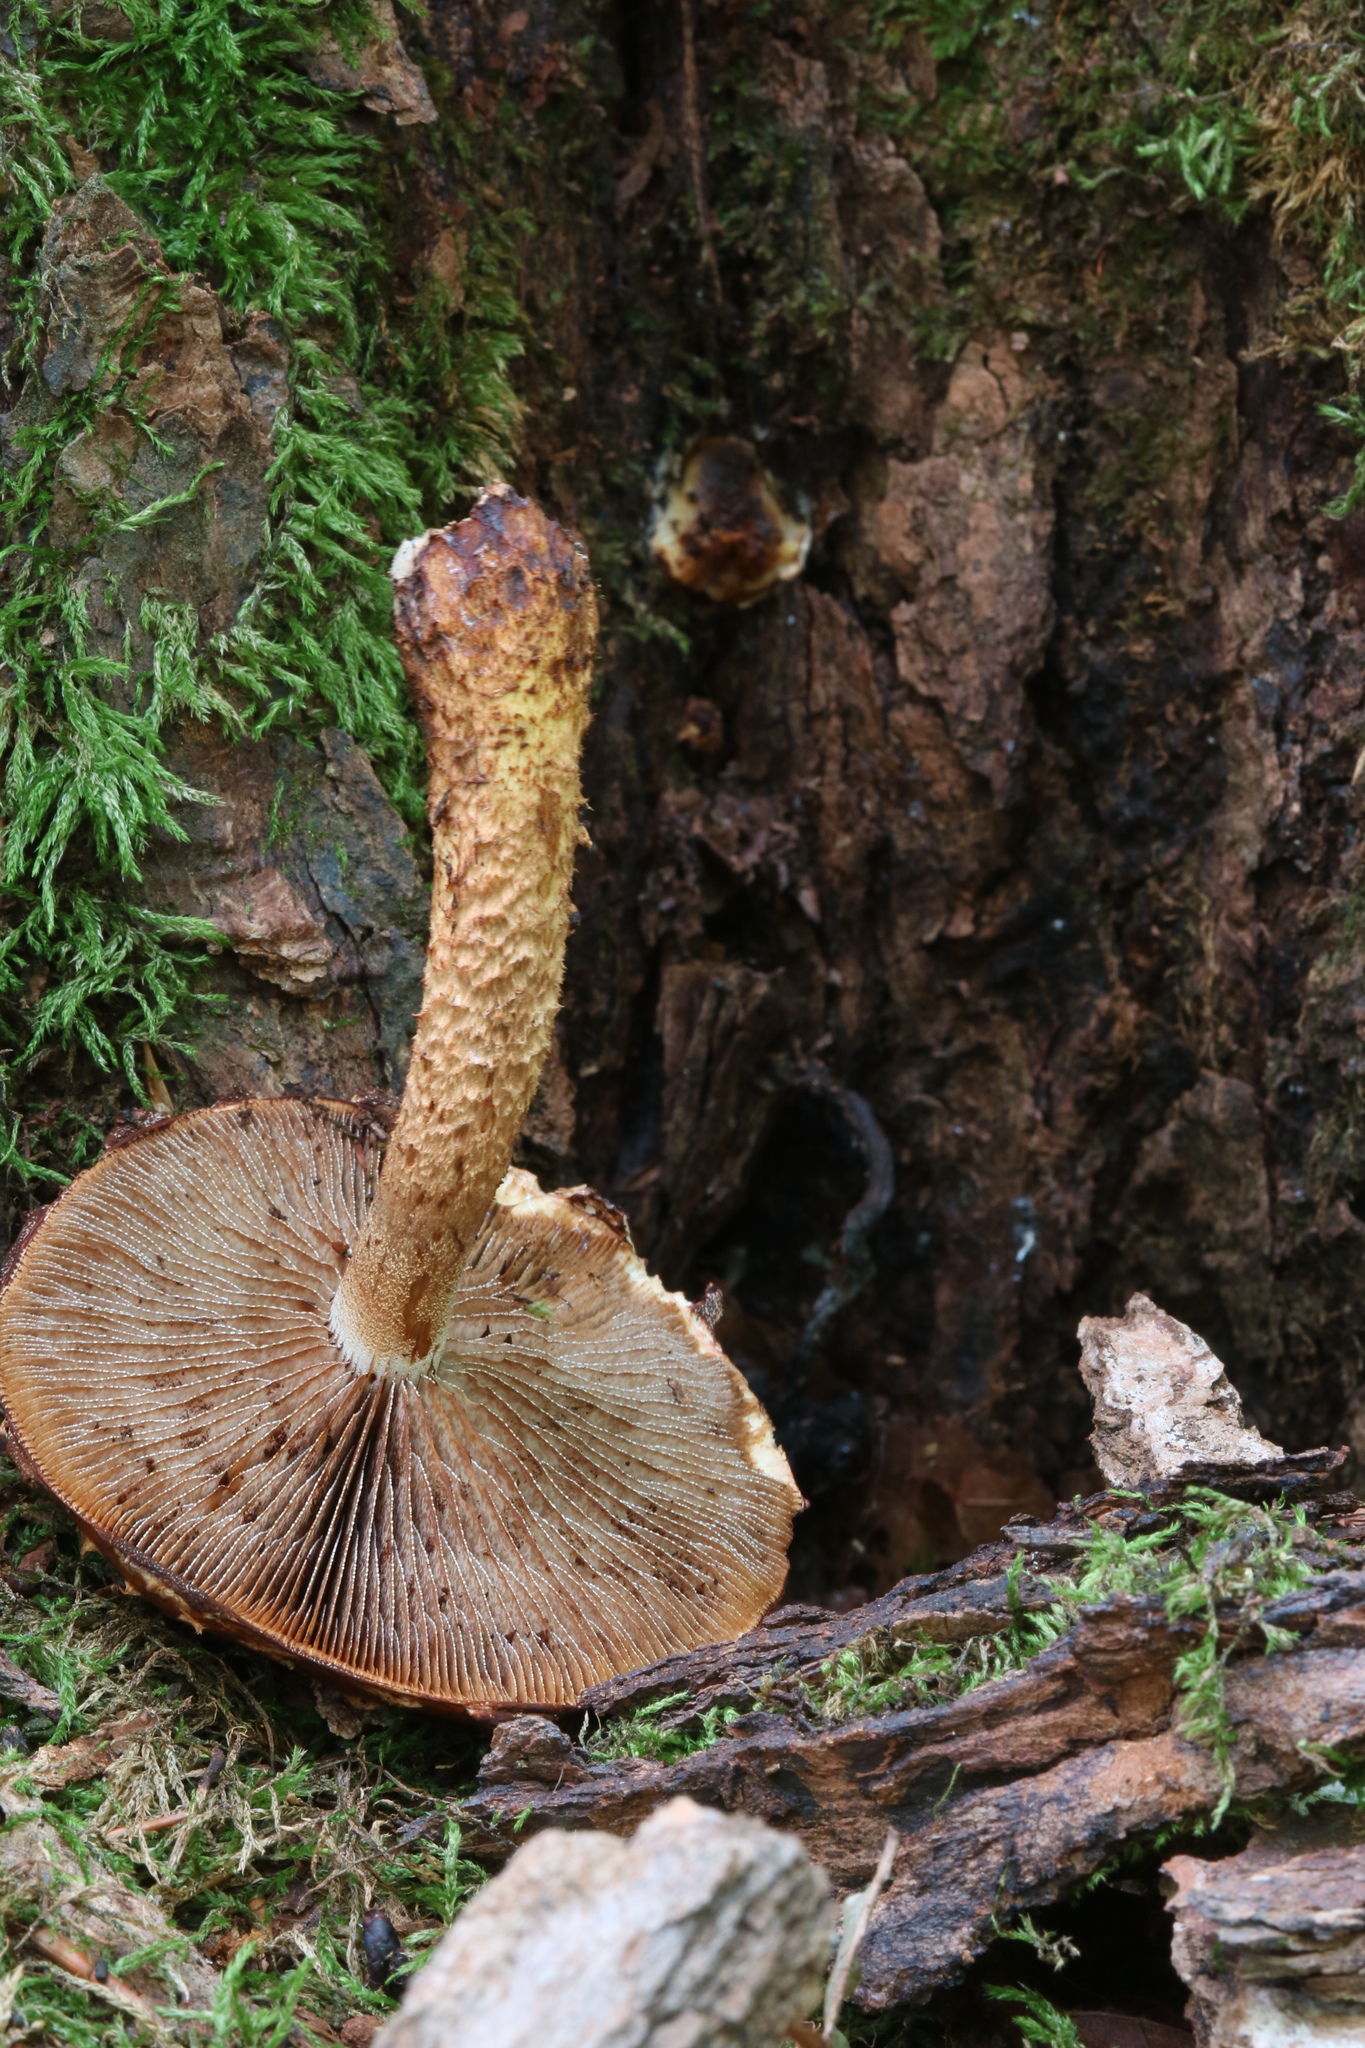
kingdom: Fungi
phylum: Basidiomycota
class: Agaricomycetes
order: Agaricales
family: Tubariaceae
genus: Hemistropharia
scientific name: Hemistropharia albocrenulata
